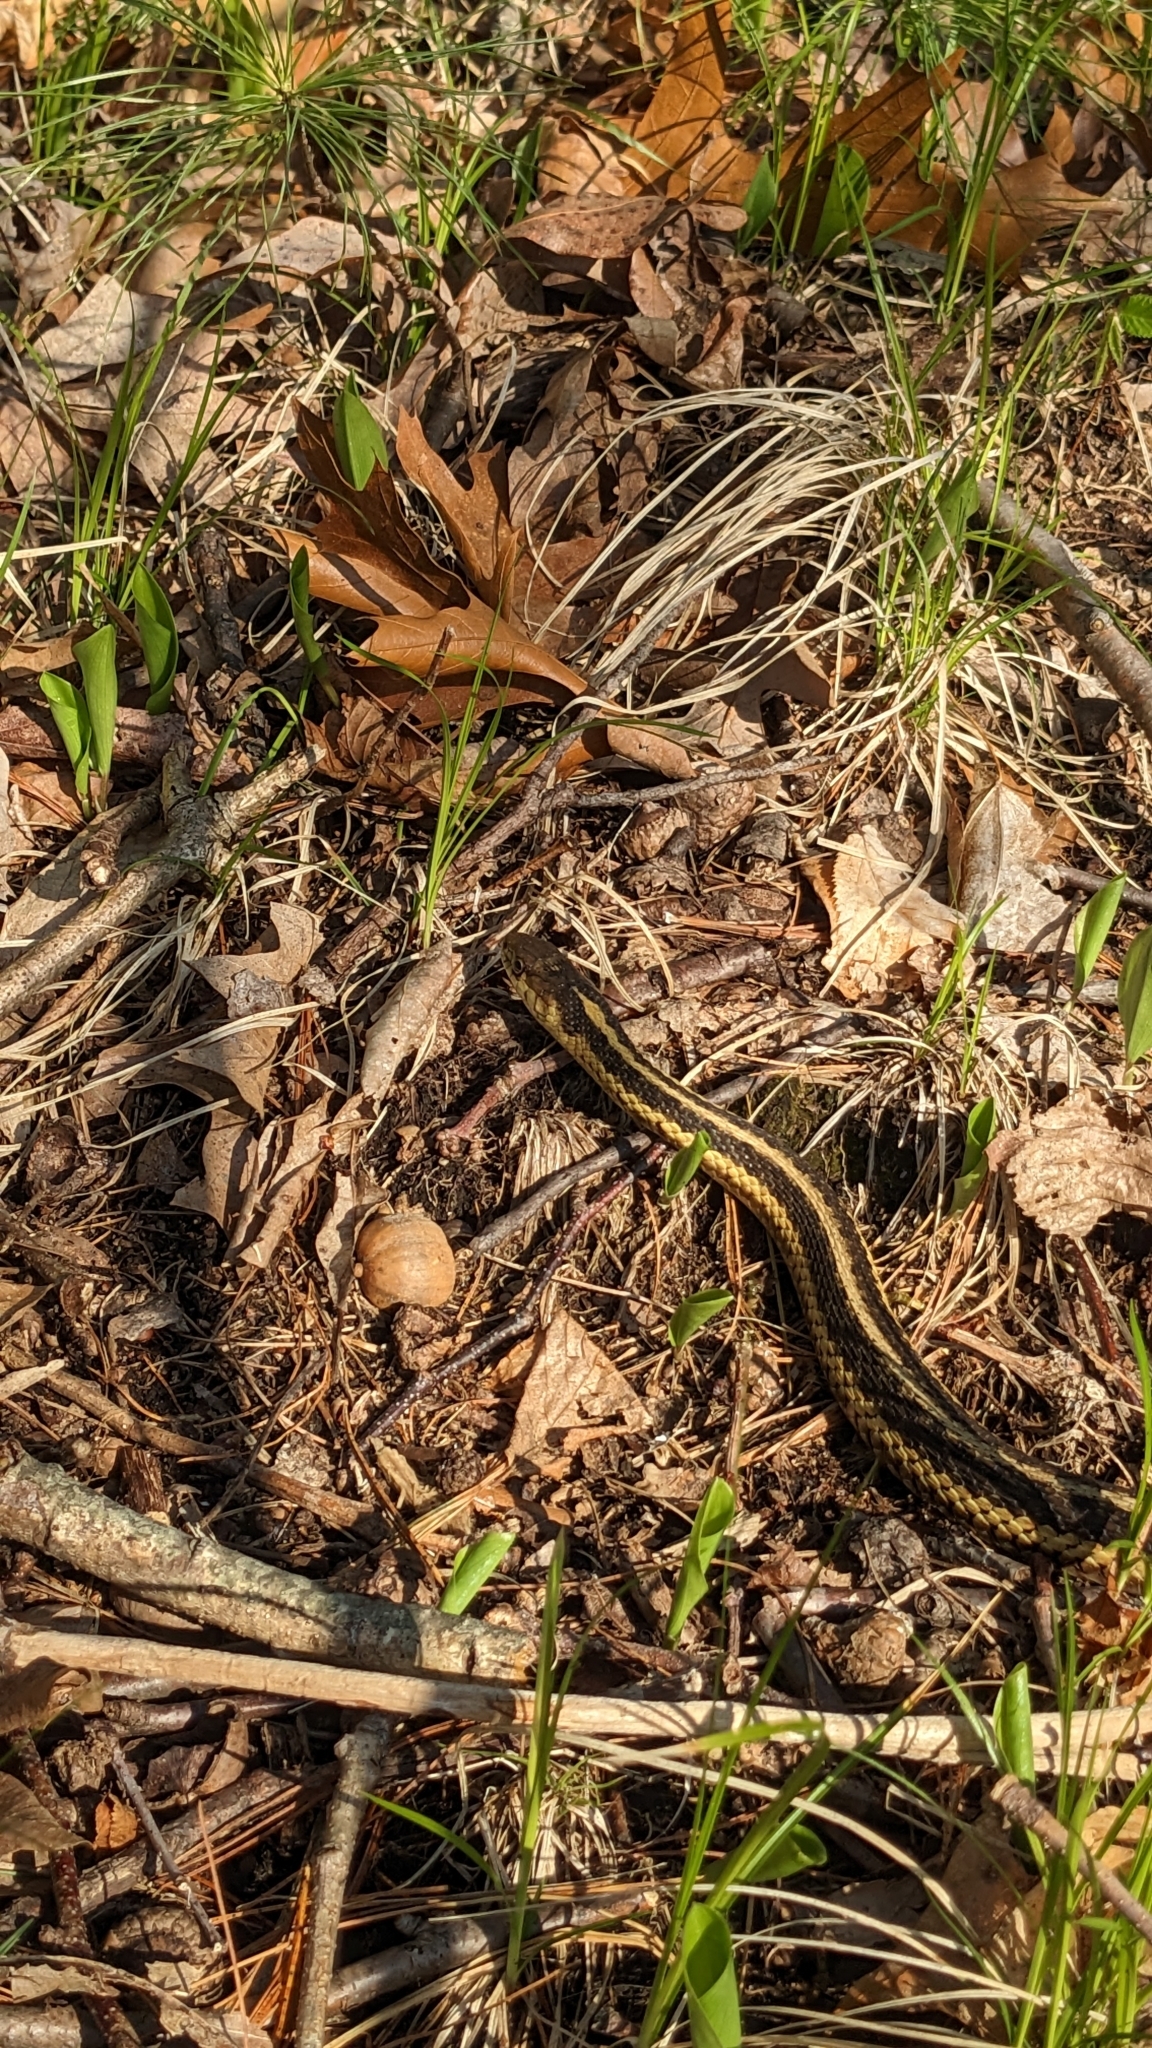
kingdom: Animalia
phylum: Chordata
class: Squamata
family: Colubridae
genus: Thamnophis
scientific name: Thamnophis sirtalis
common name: Common garter snake
